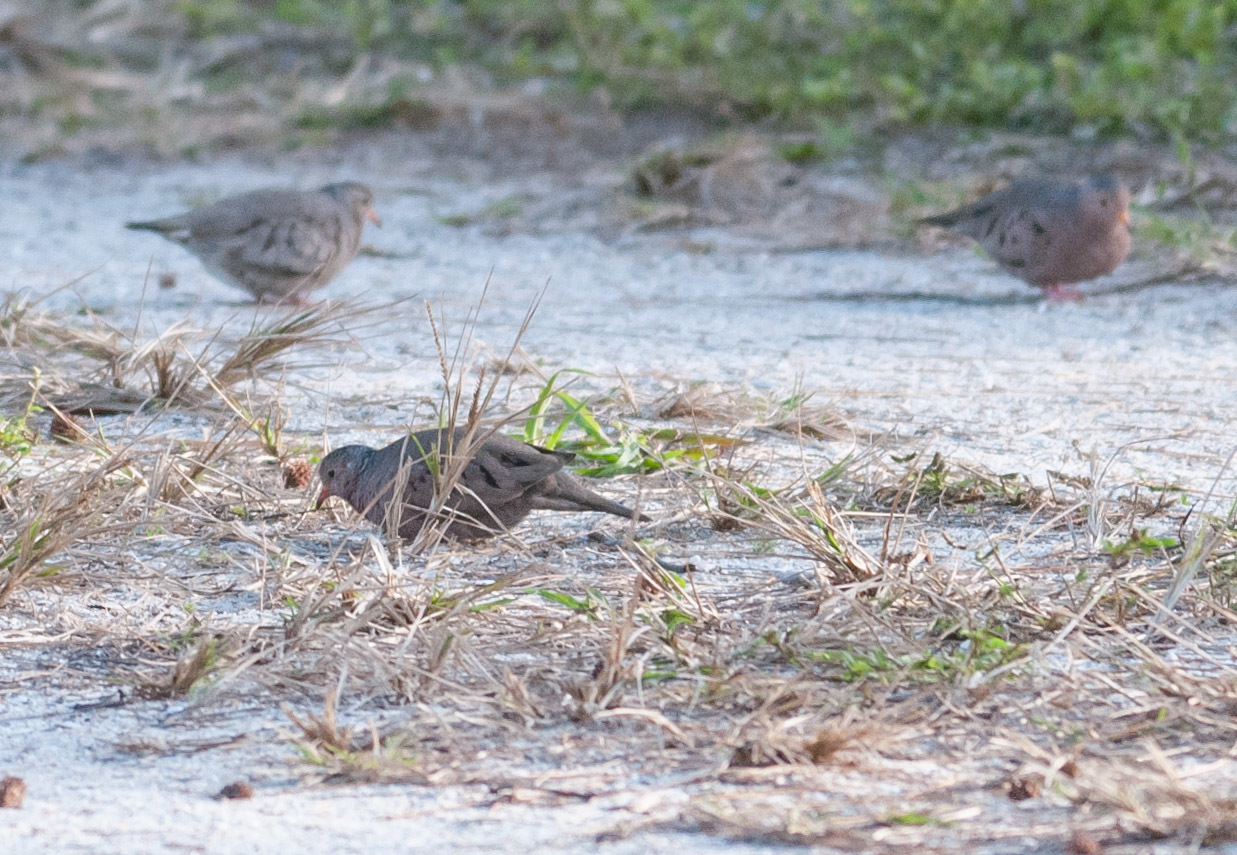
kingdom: Animalia
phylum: Chordata
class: Aves
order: Columbiformes
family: Columbidae
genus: Columbina
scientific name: Columbina passerina
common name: Common ground-dove
